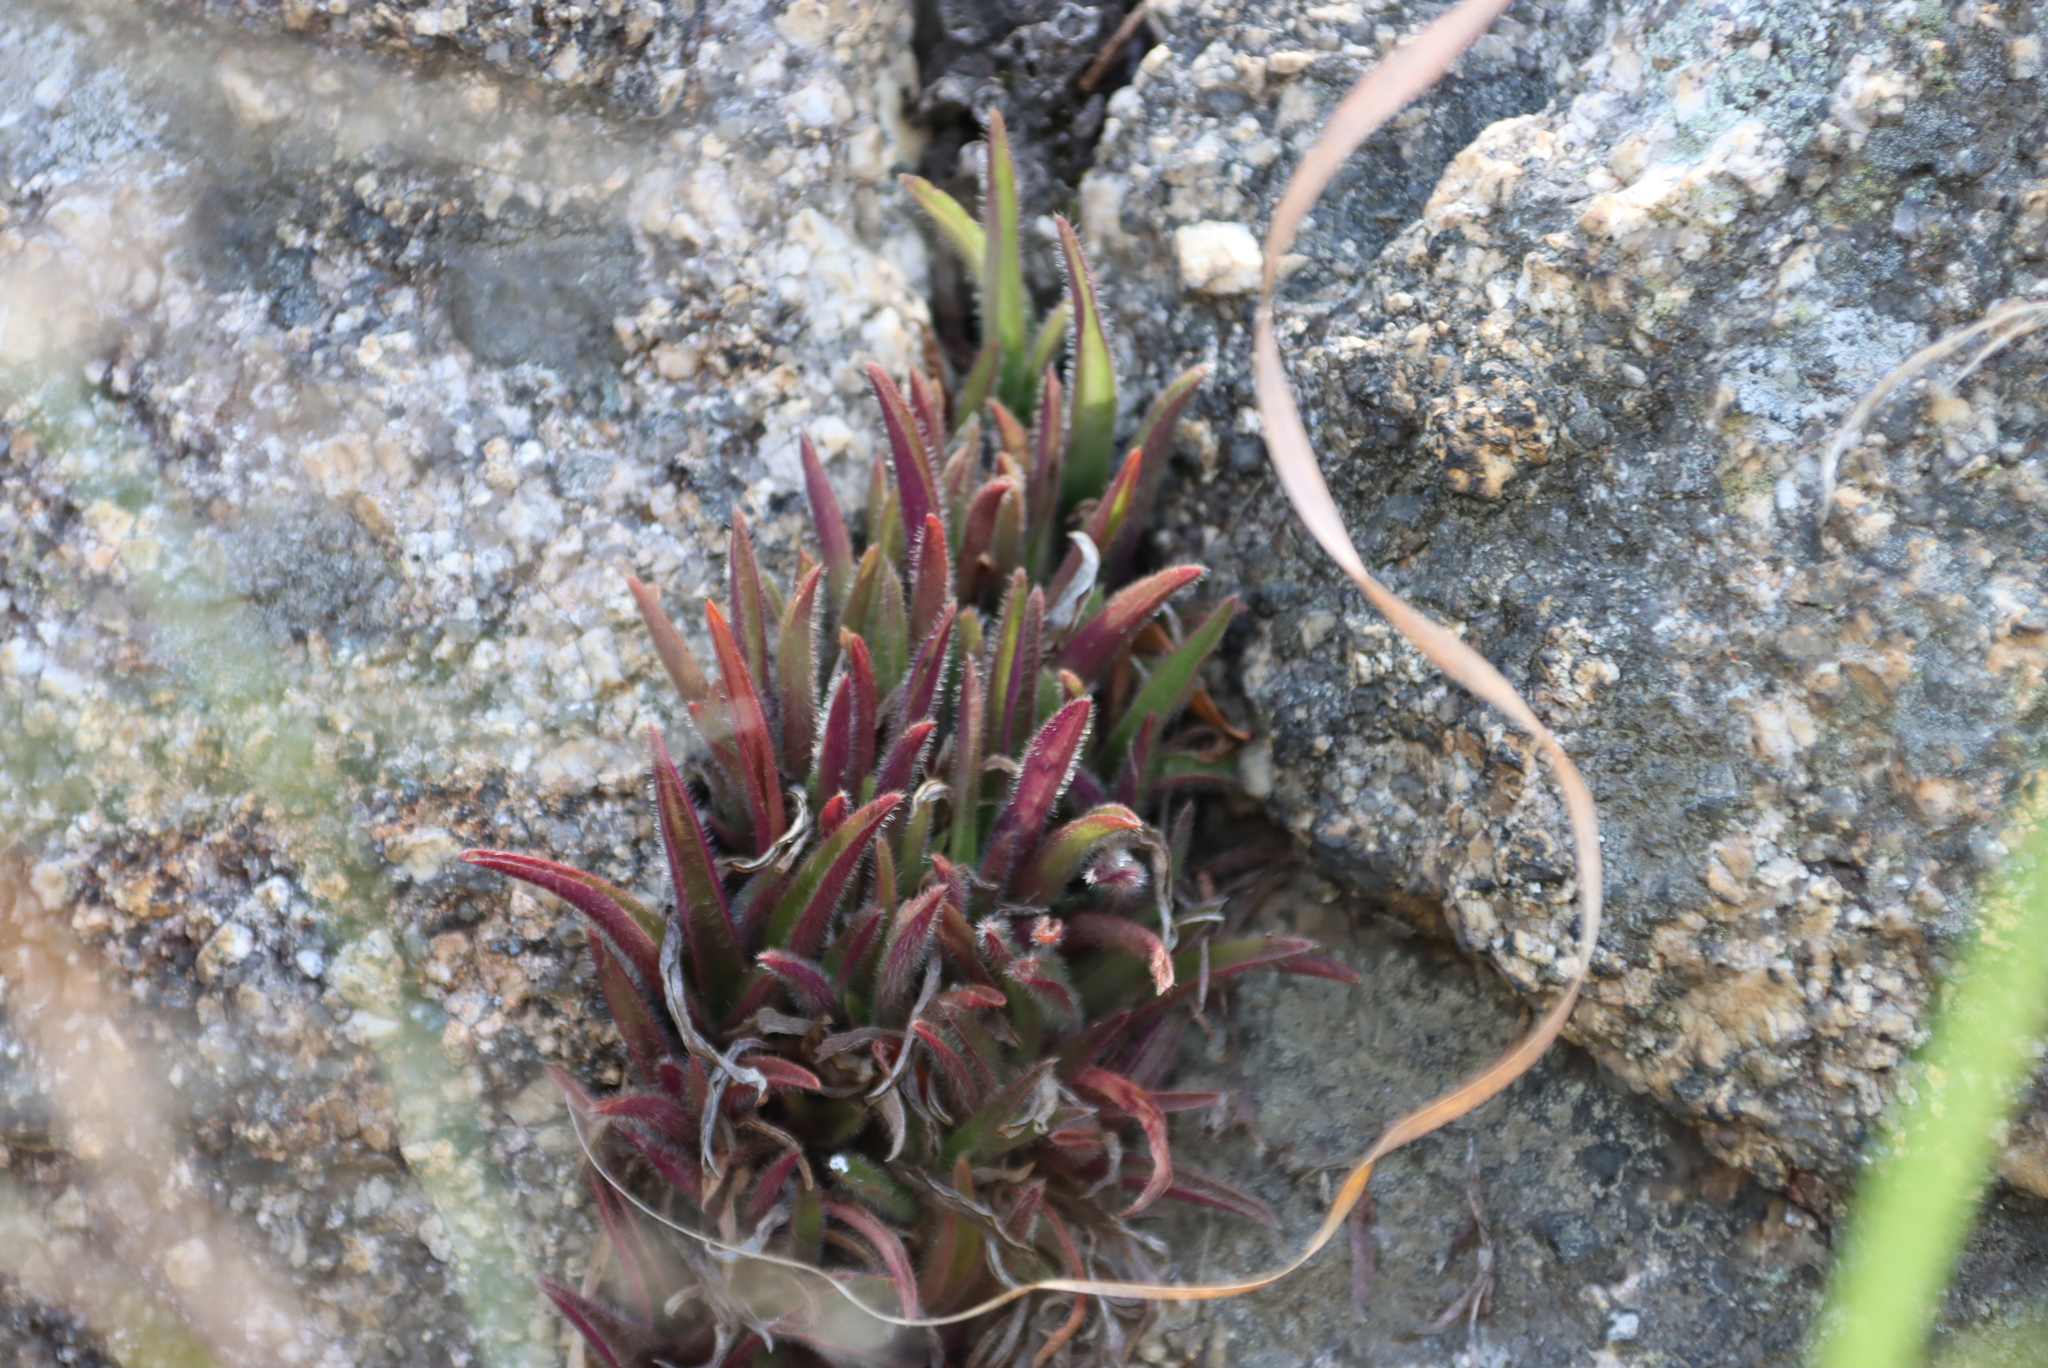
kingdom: Plantae
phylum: Tracheophyta
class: Liliopsida
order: Commelinales
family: Commelinaceae
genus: Cyanotis
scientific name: Cyanotis lapidosa
